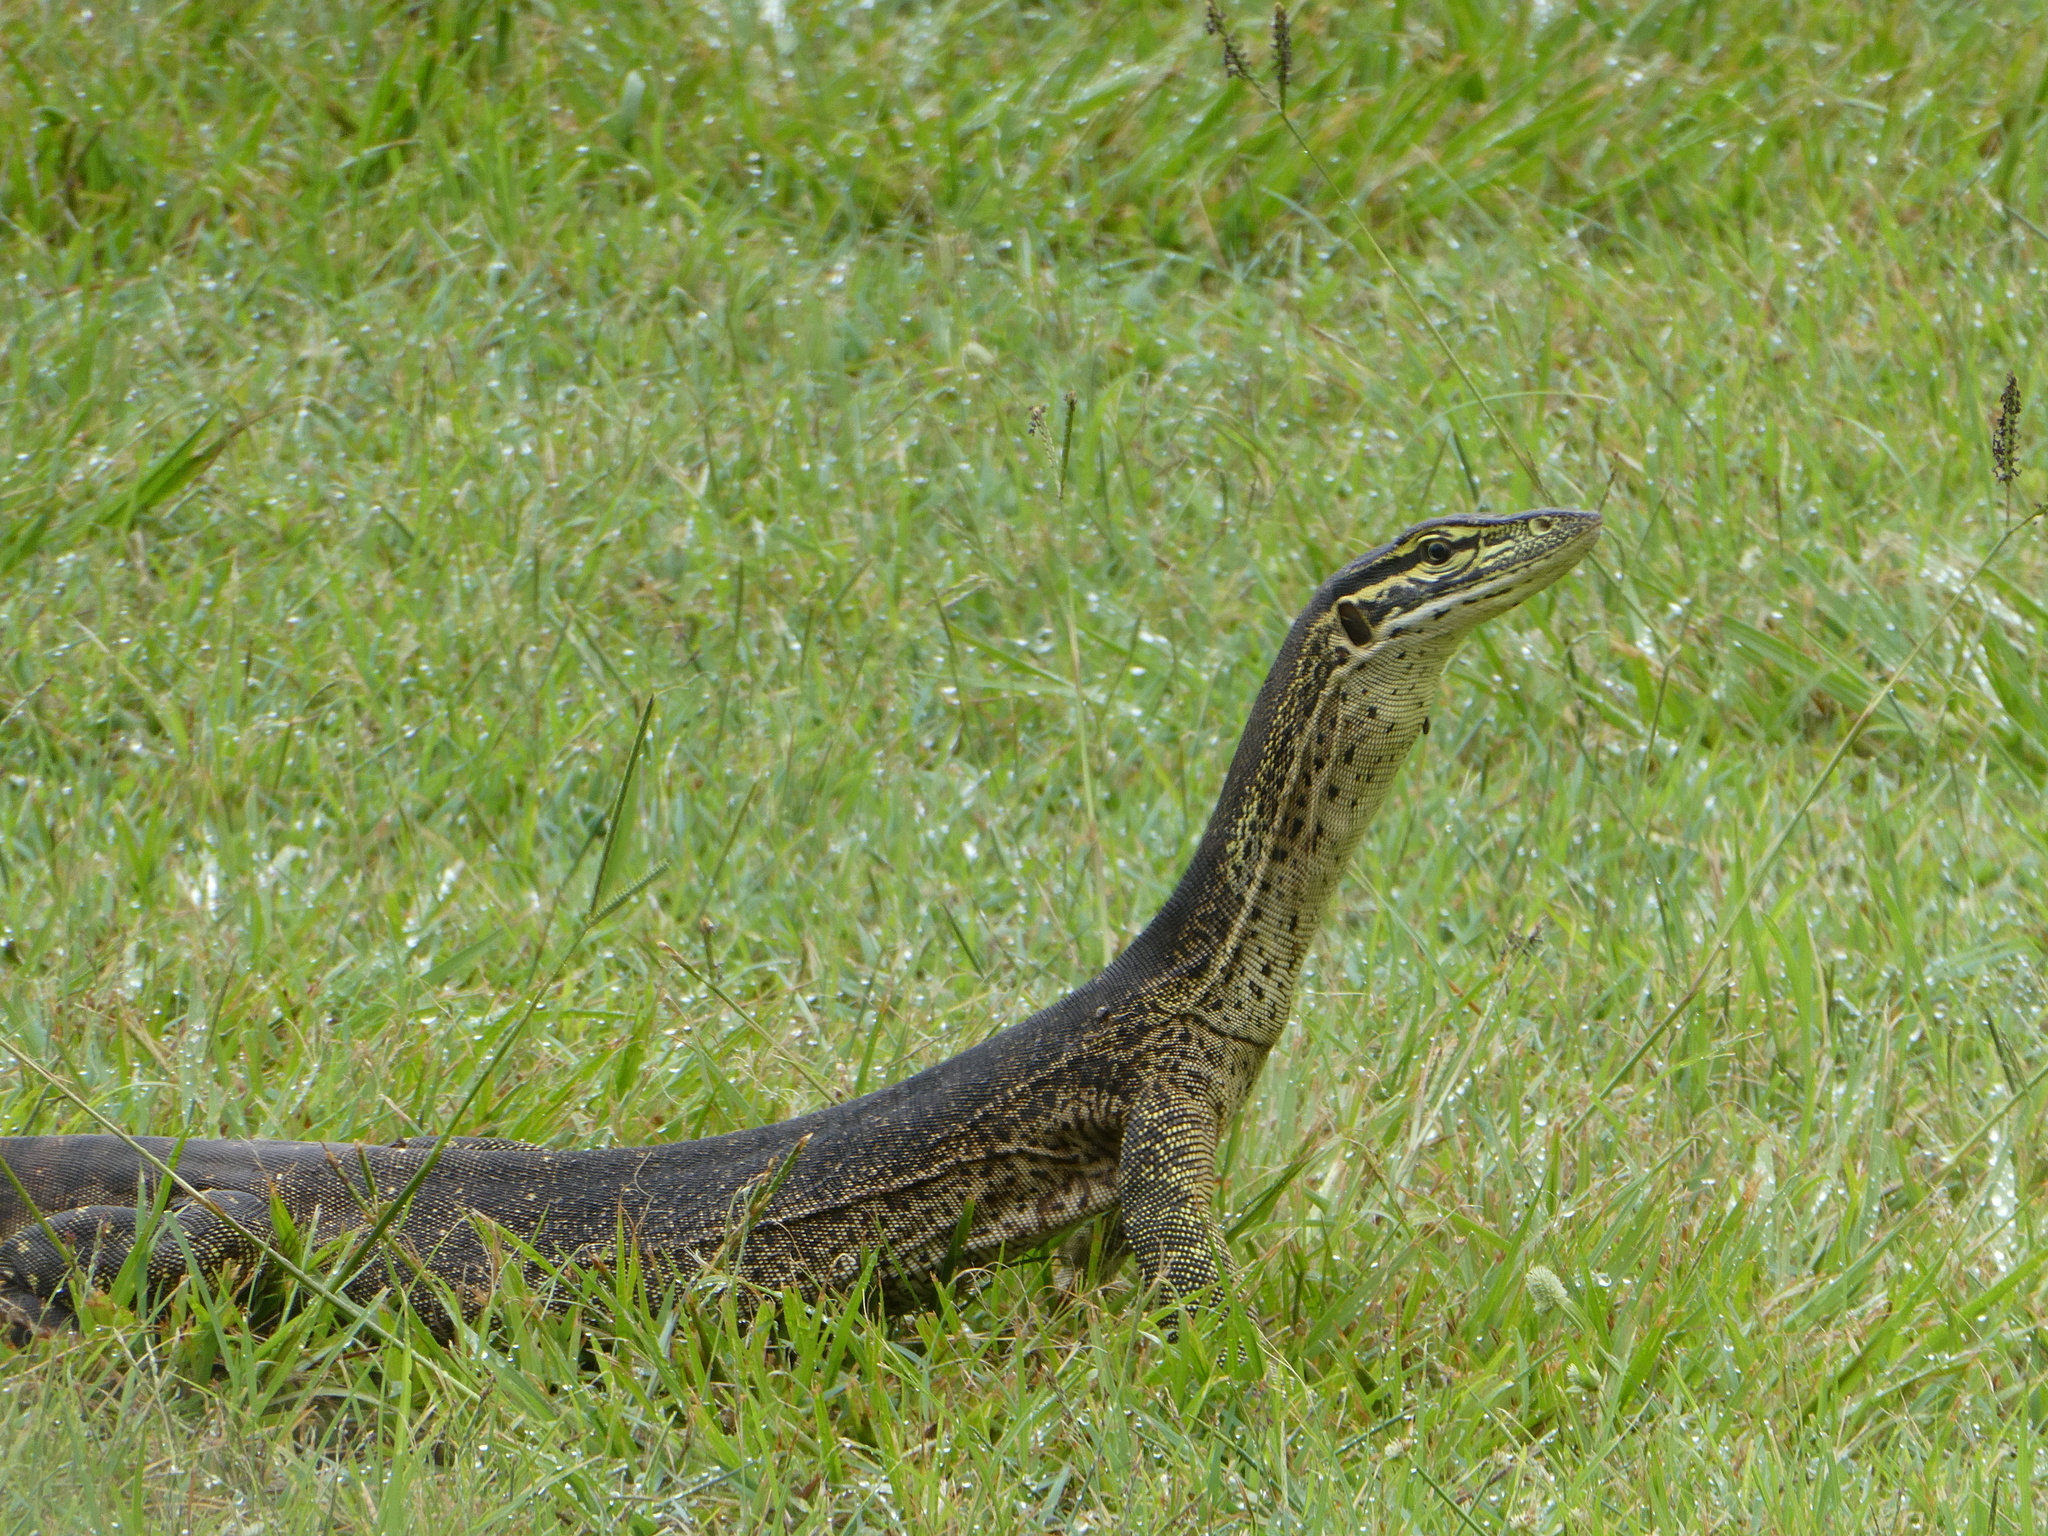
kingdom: Animalia
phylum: Chordata
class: Squamata
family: Varanidae
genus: Varanus
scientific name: Varanus panoptes
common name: Yellow-spotted monitor
